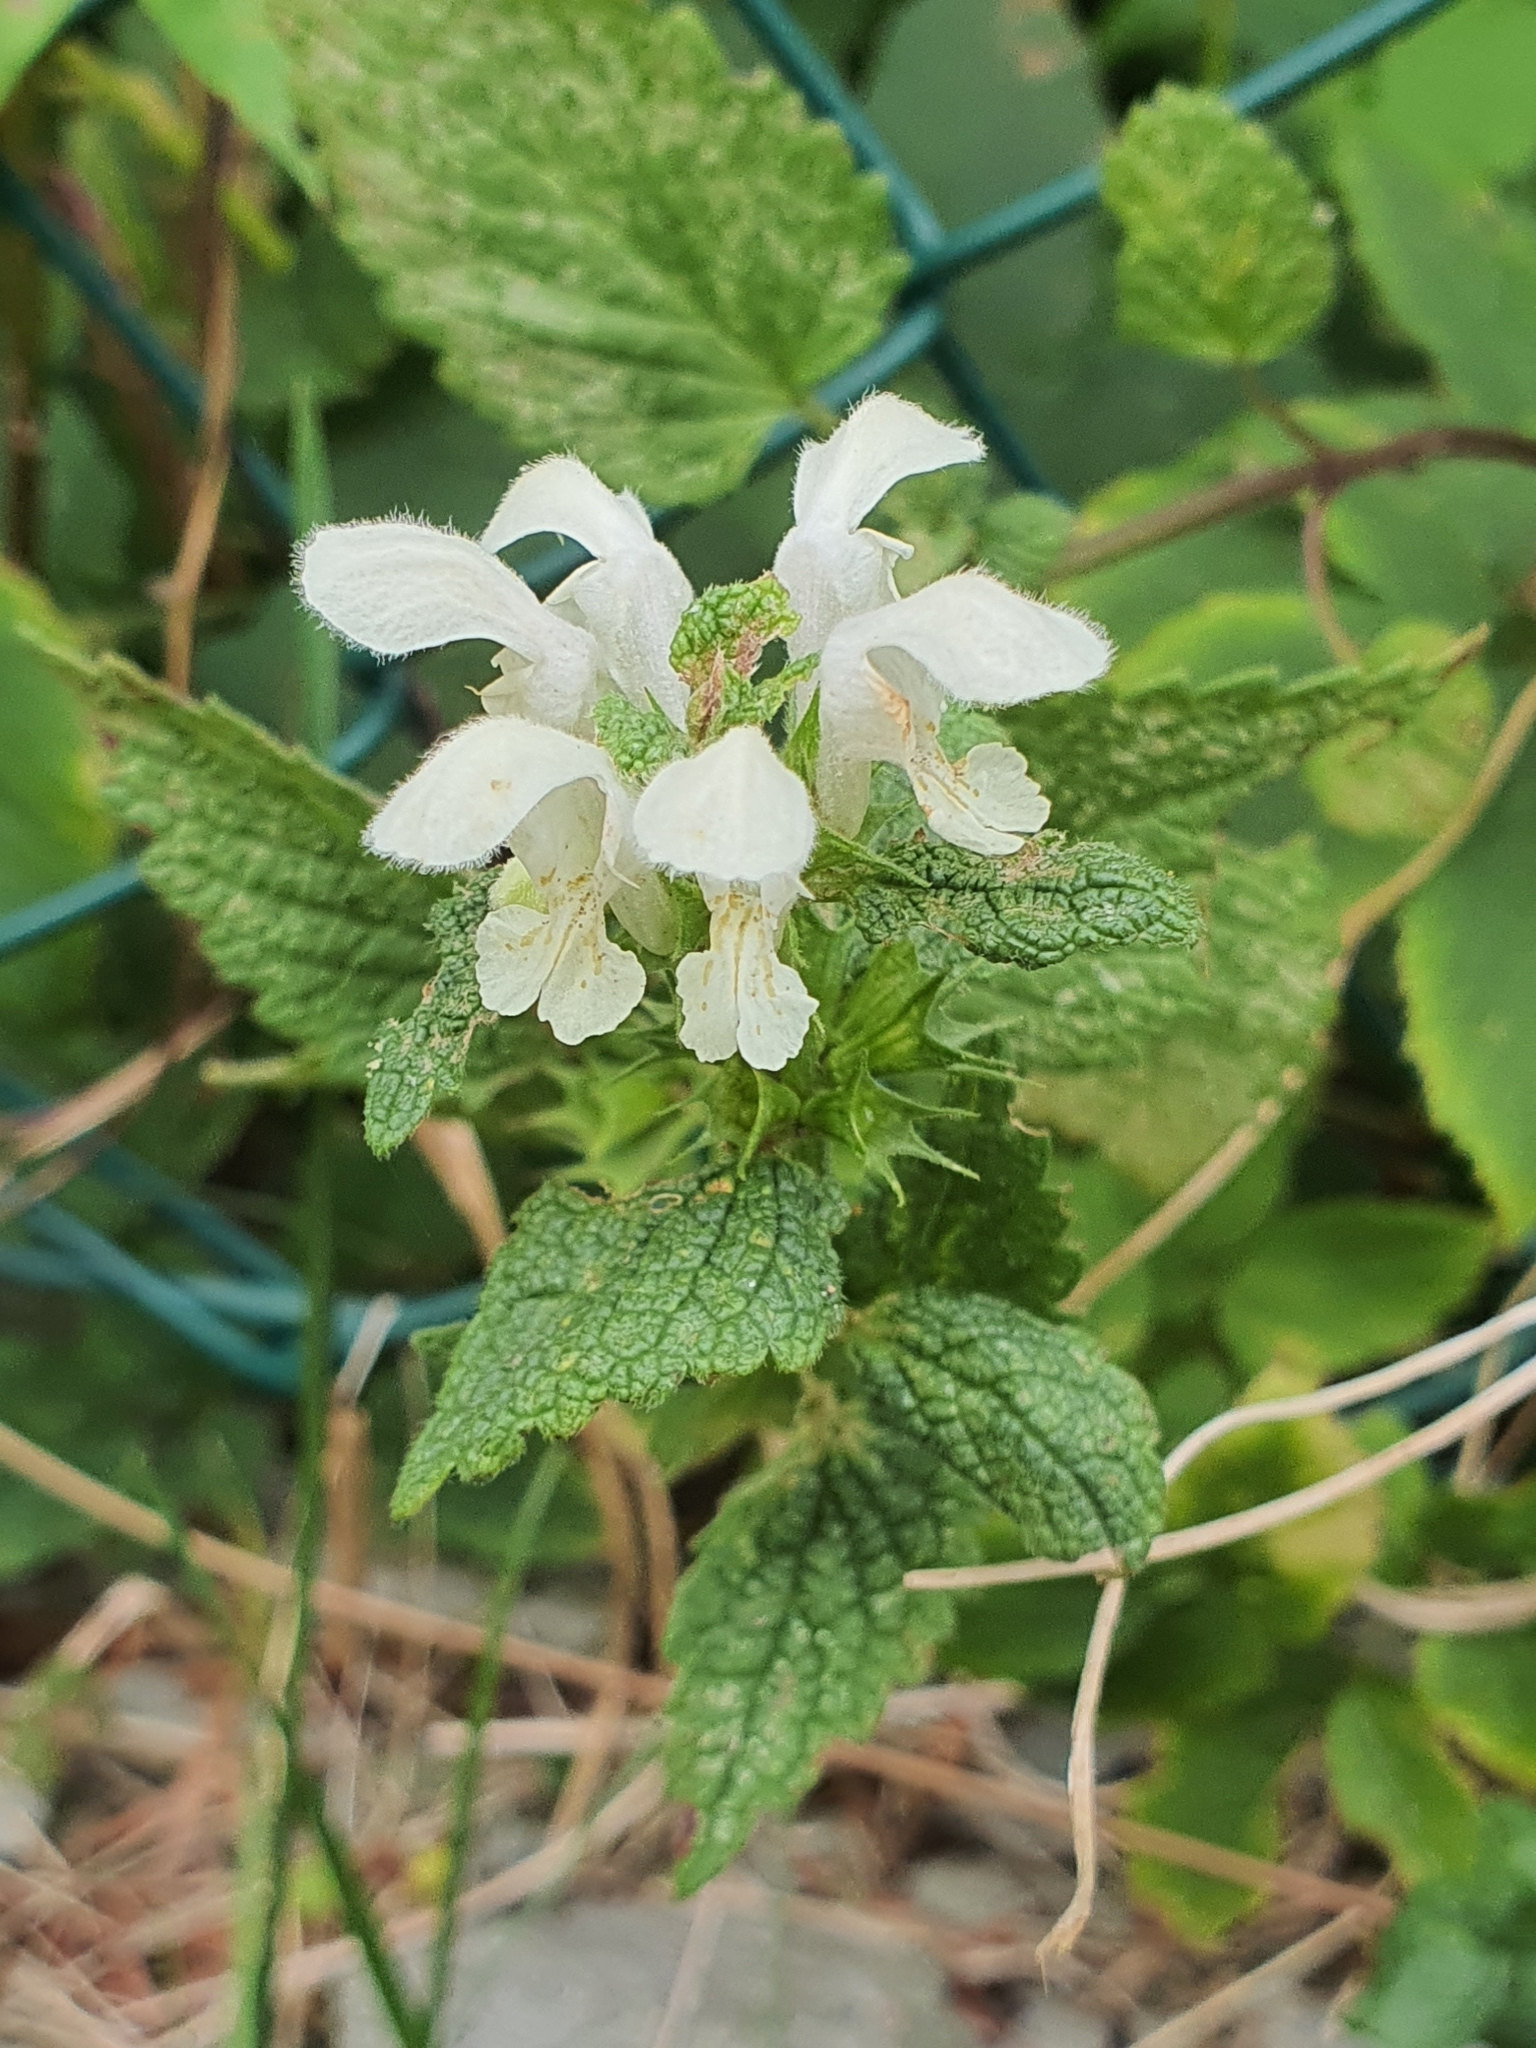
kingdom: Plantae
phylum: Tracheophyta
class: Magnoliopsida
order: Lamiales
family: Lamiaceae
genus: Lamium
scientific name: Lamium album
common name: White dead-nettle
